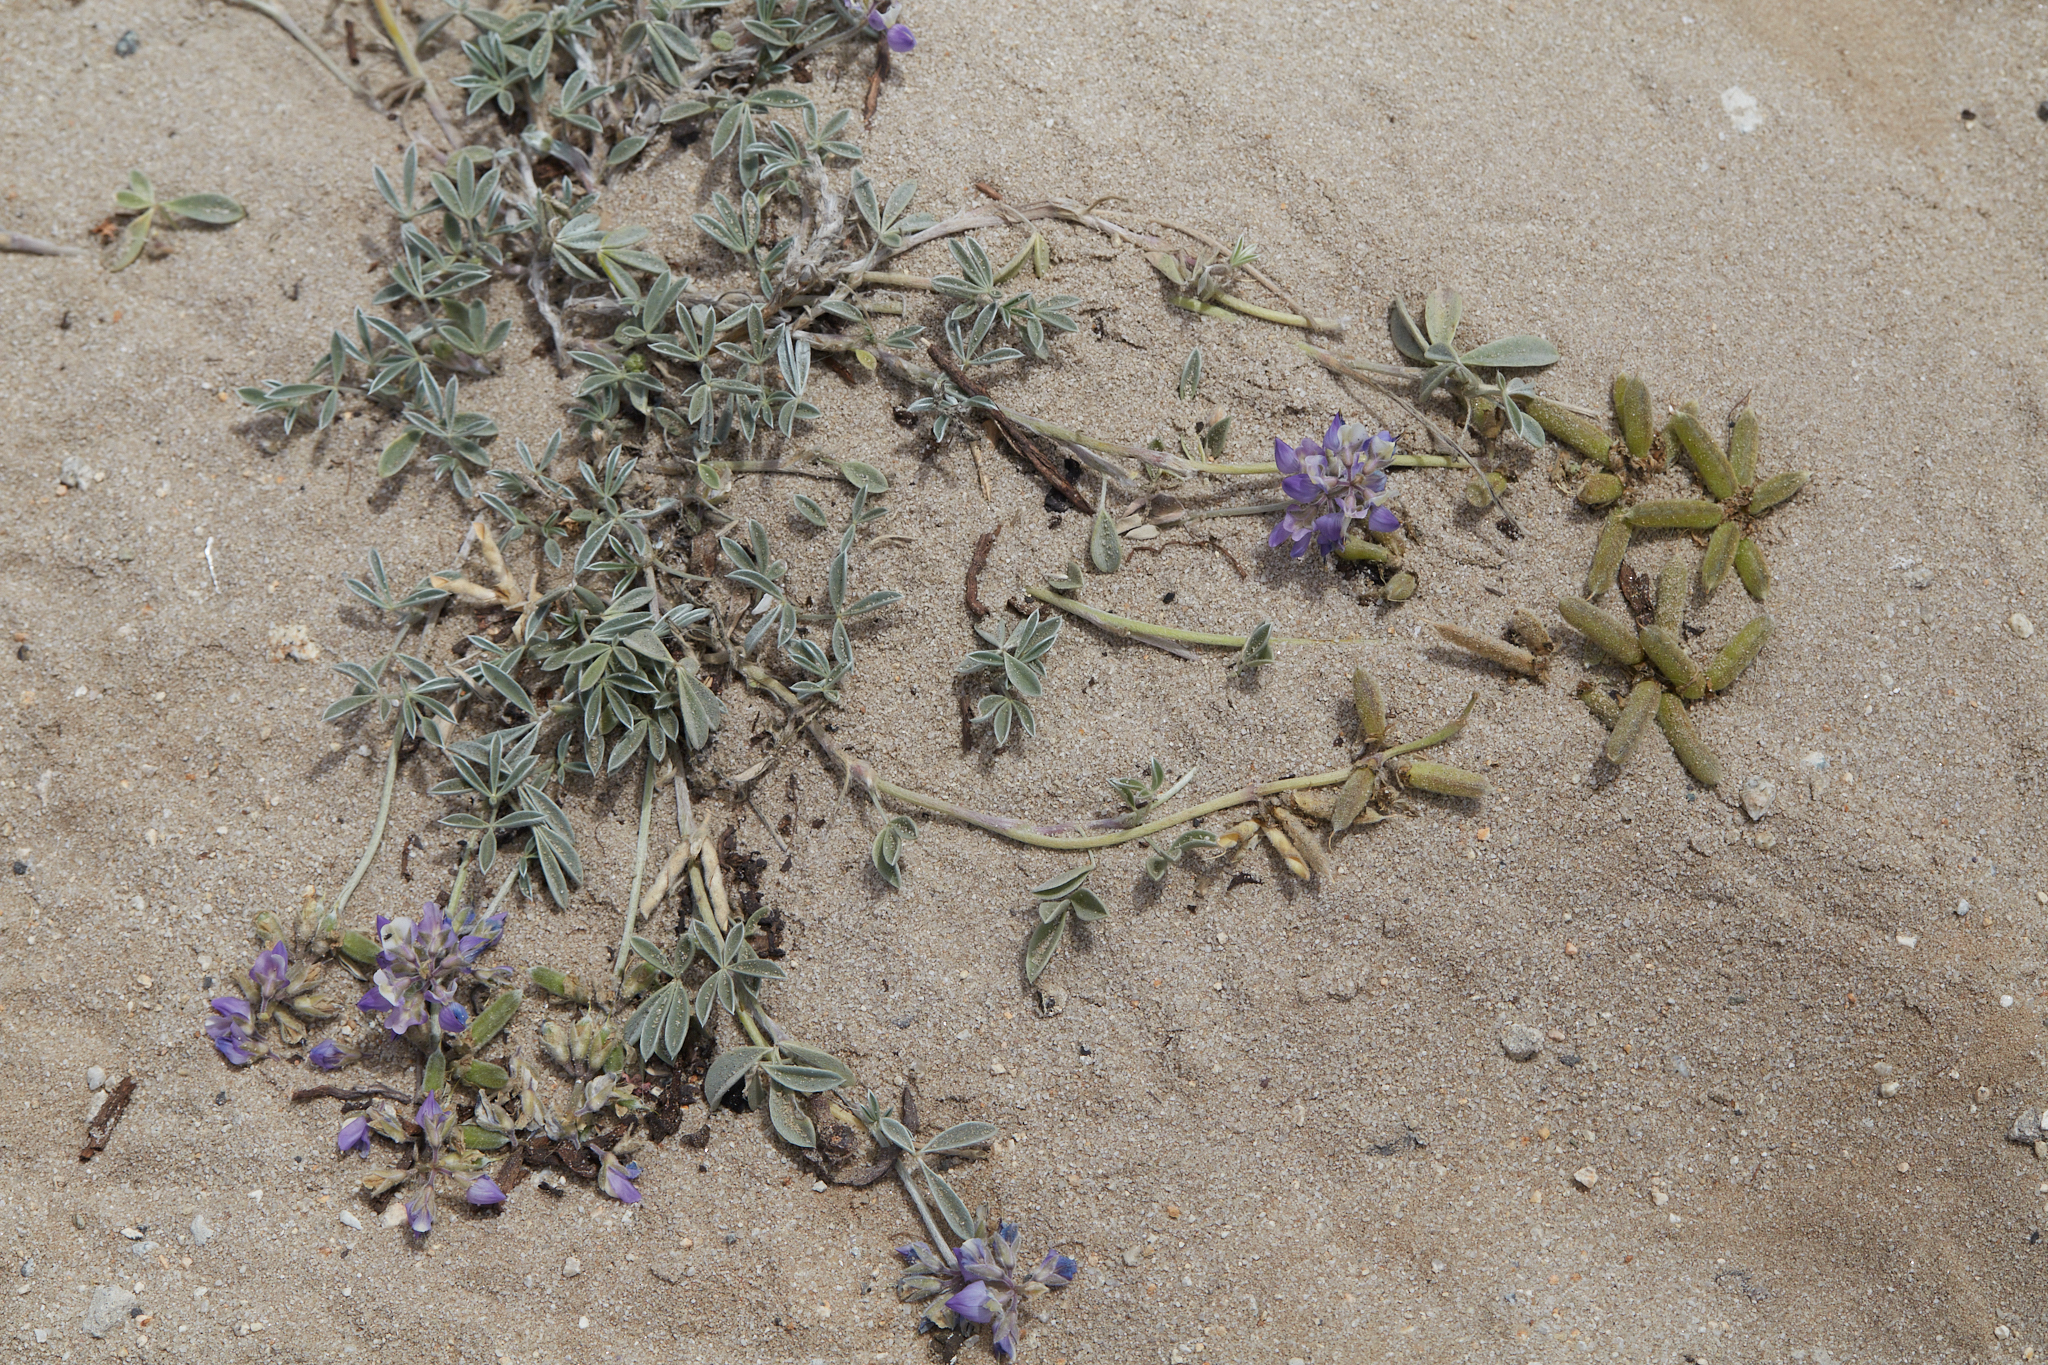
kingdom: Plantae
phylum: Tracheophyta
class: Magnoliopsida
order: Fabales
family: Fabaceae
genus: Lupinus
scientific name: Lupinus tidestromii
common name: Clover lupine
